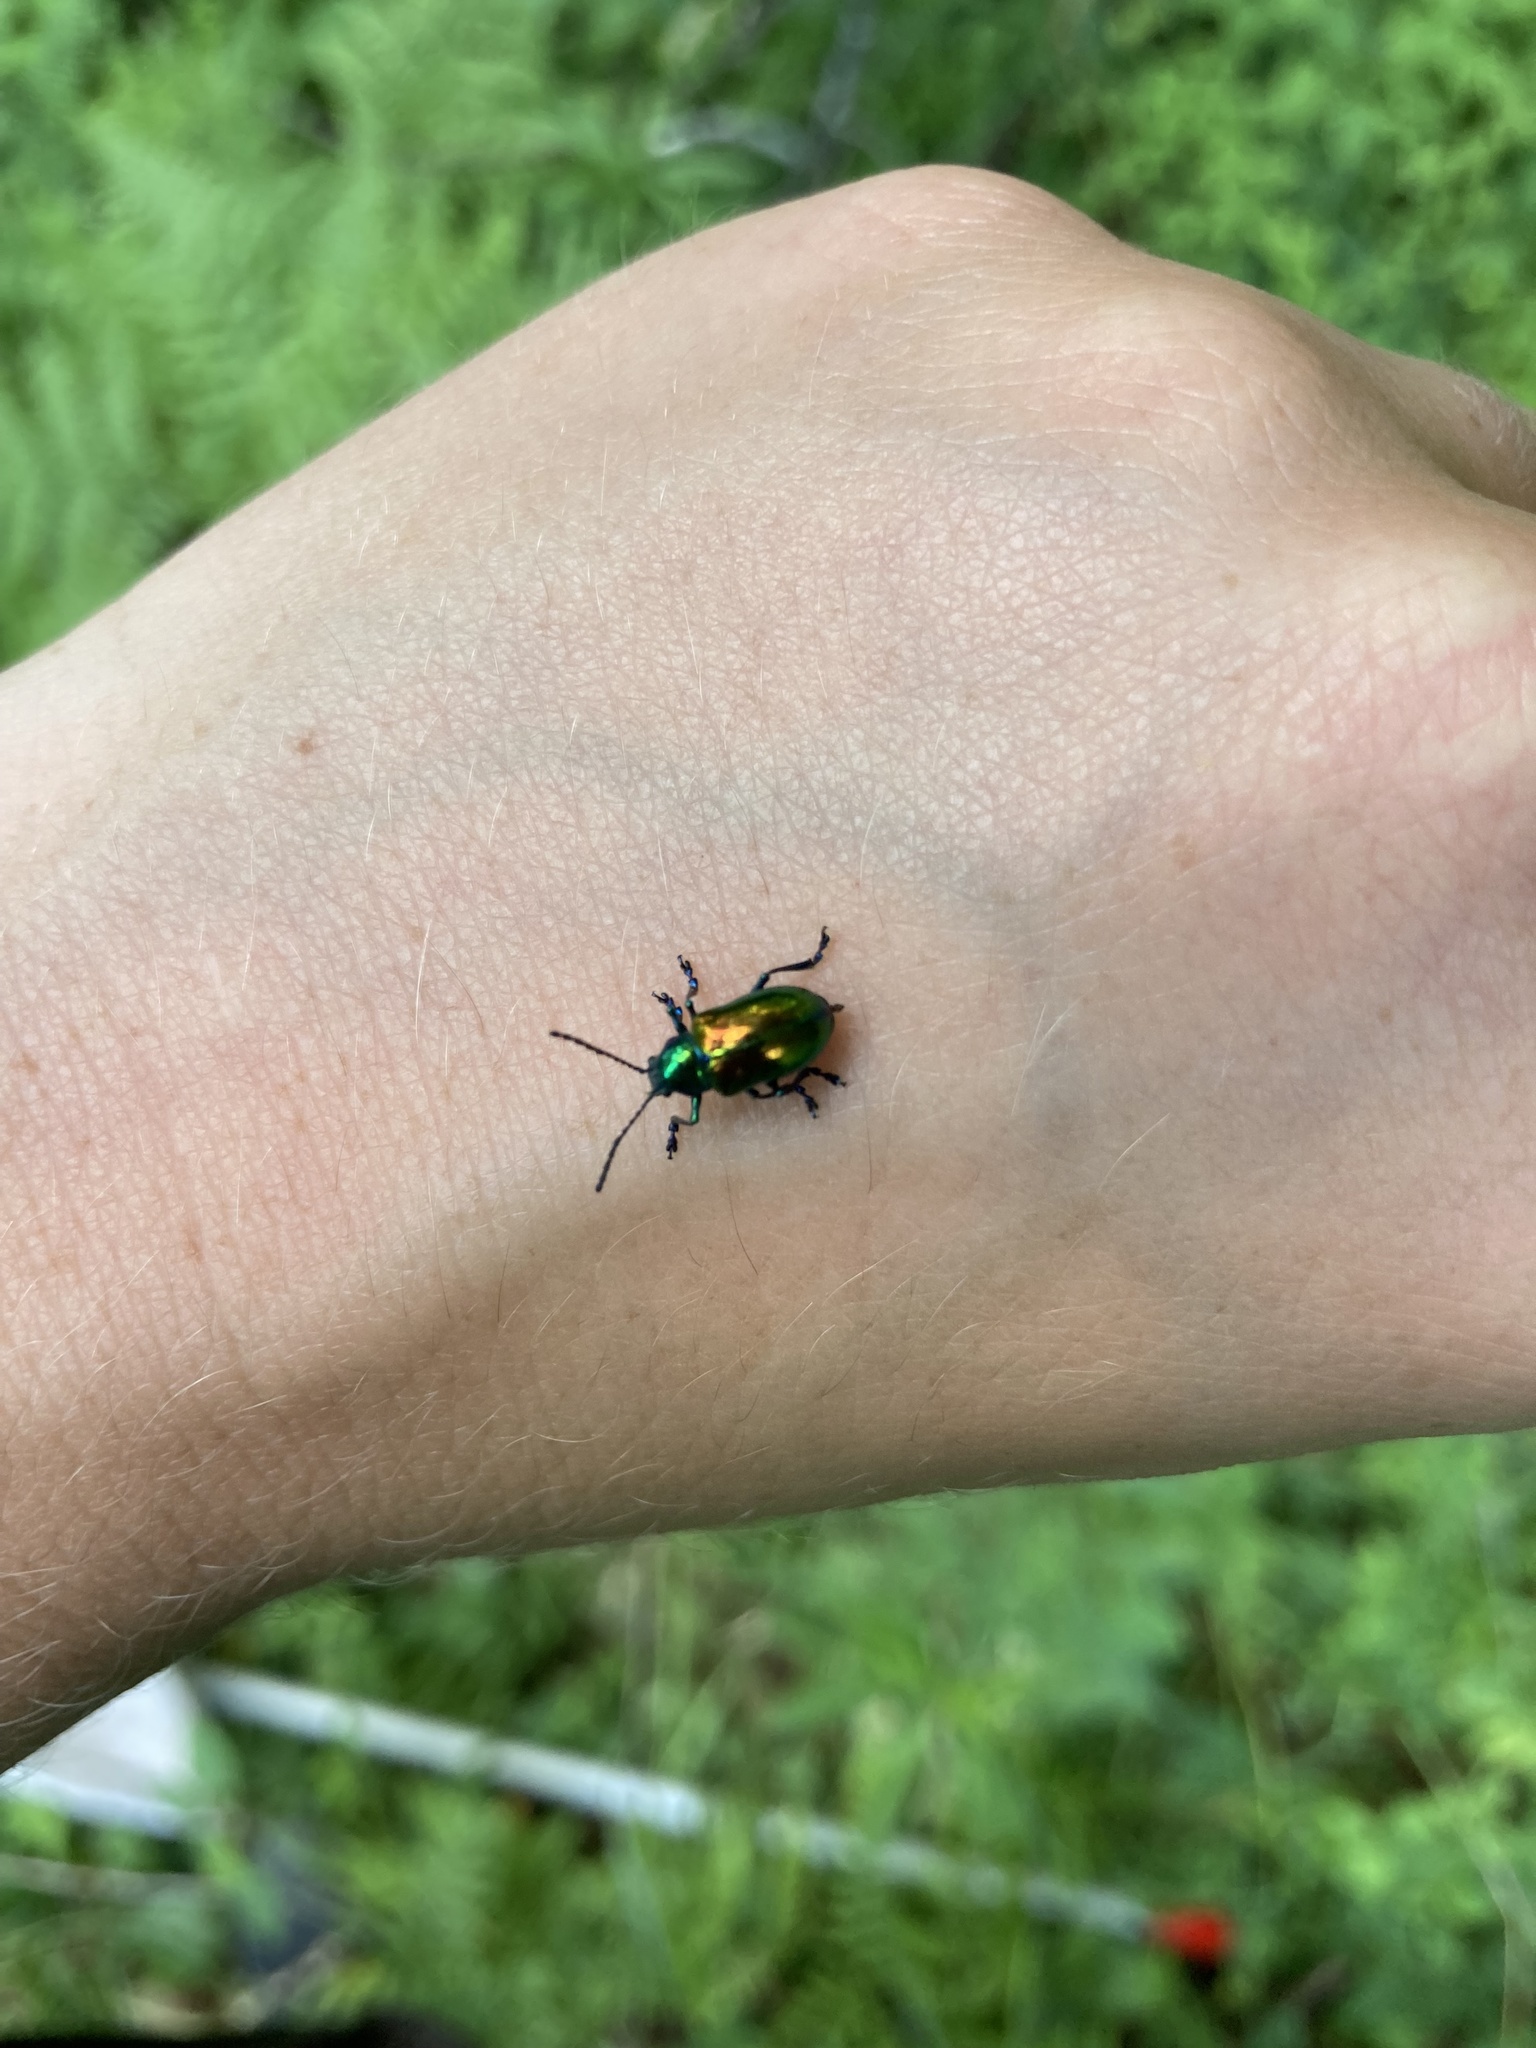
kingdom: Animalia
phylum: Arthropoda
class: Insecta
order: Coleoptera
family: Chrysomelidae
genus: Chrysochus
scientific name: Chrysochus auratus
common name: Dogbane leaf beetle
